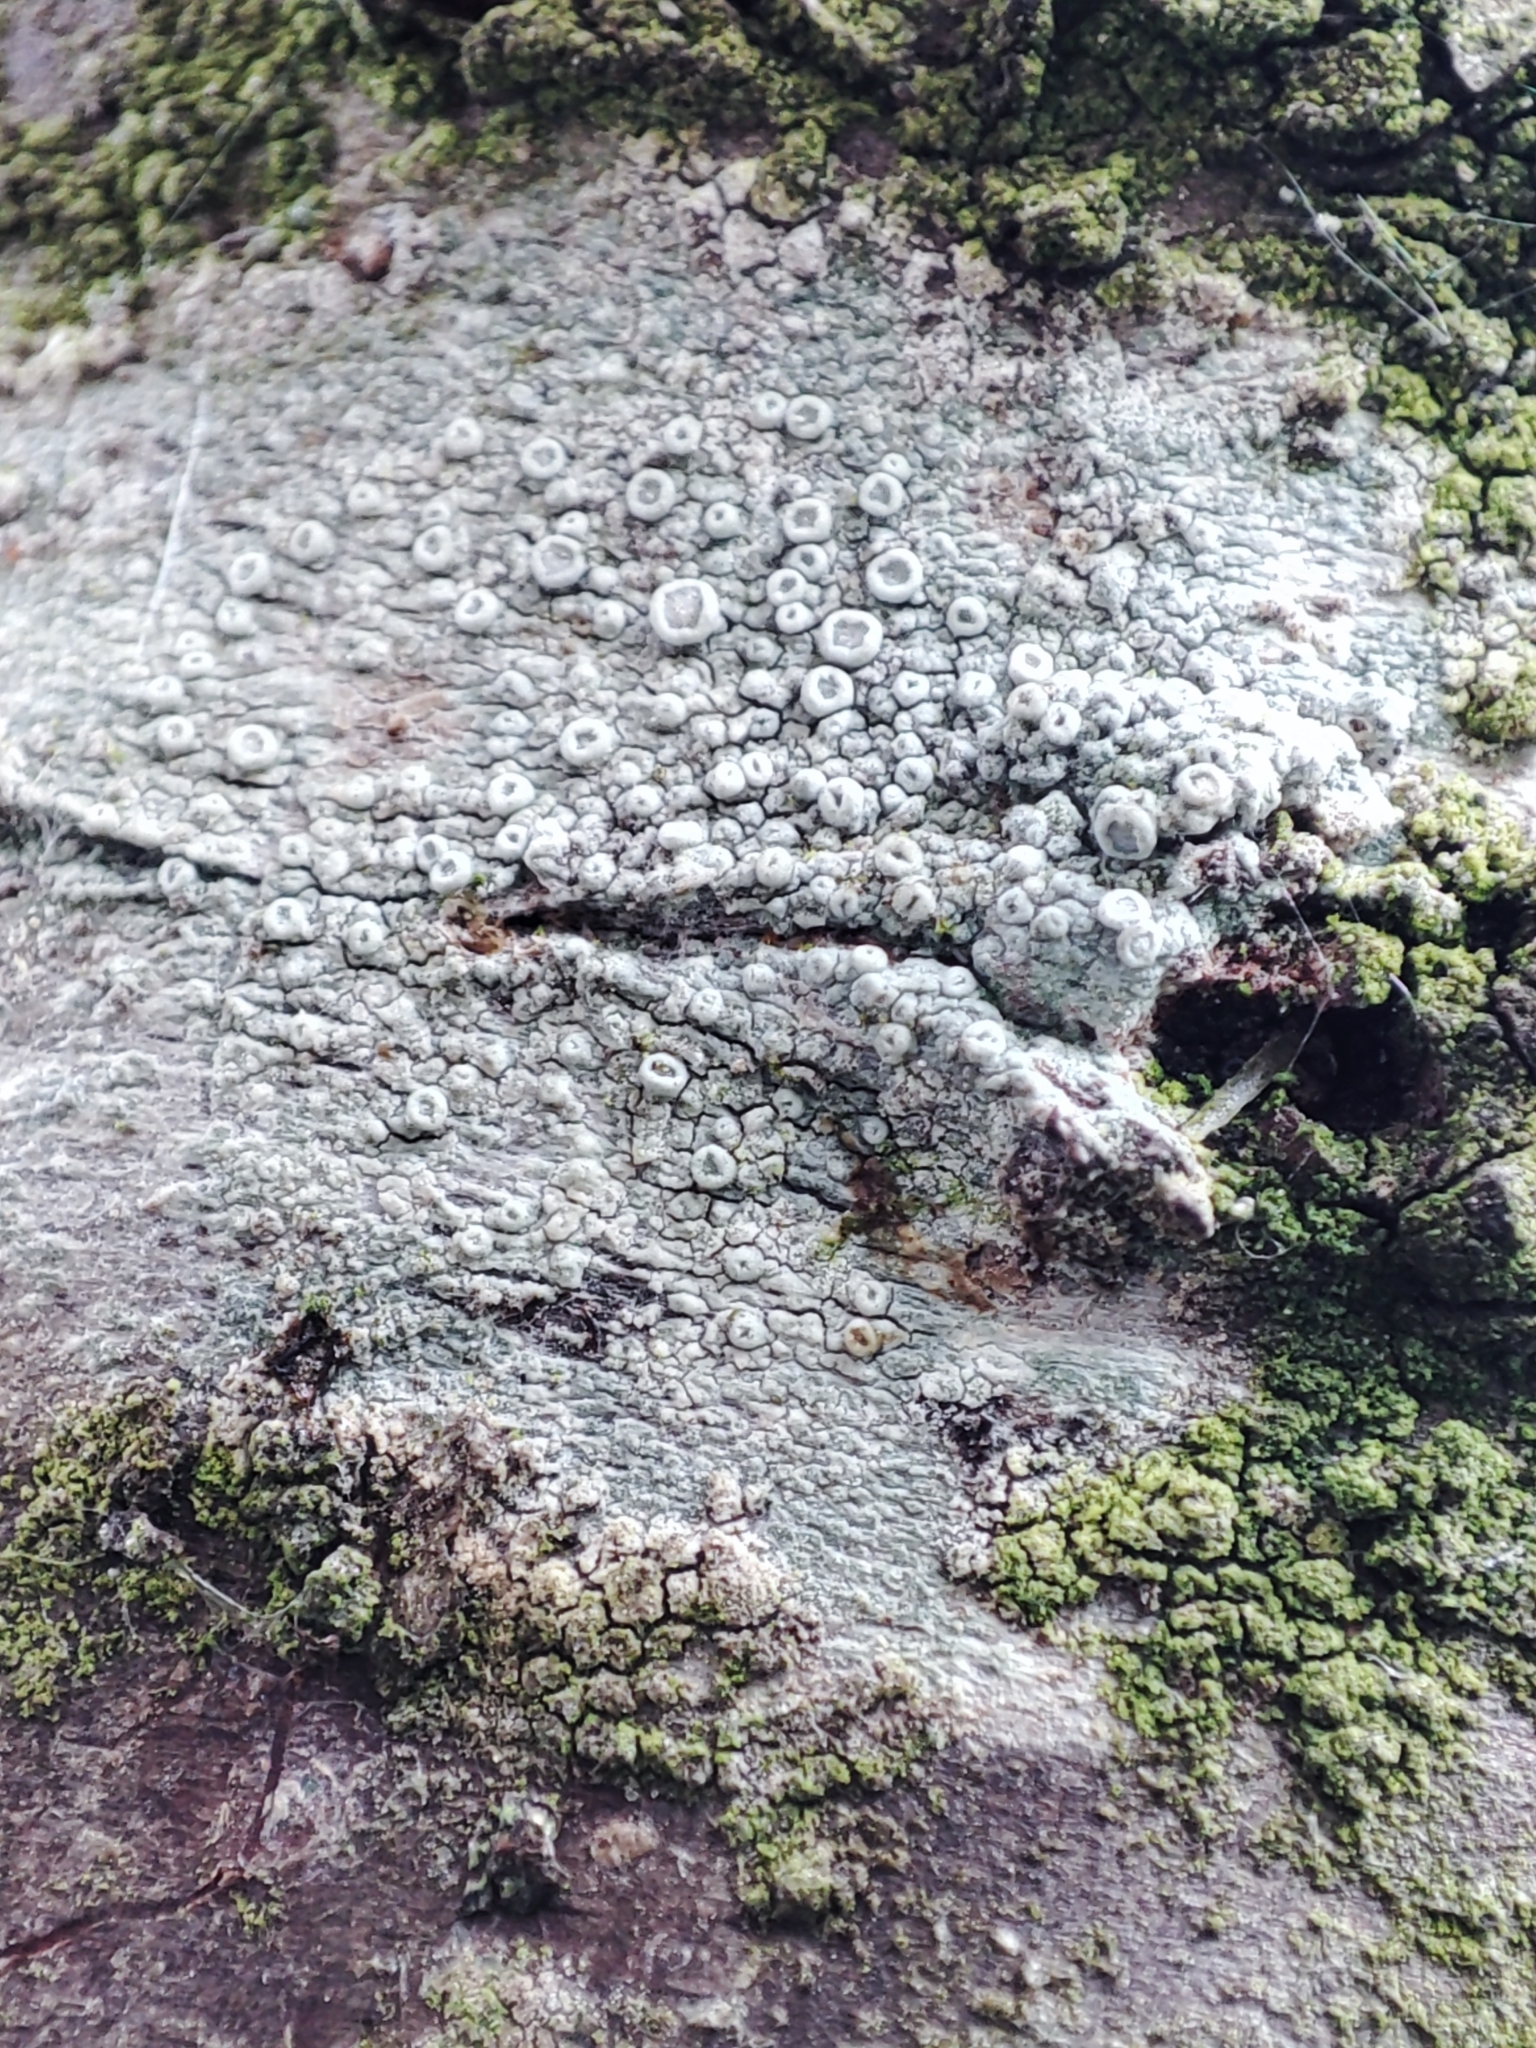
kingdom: Fungi
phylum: Ascomycota
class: Lecanoromycetes
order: Lecanorales
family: Lecanoraceae
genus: Glaucomaria
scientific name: Glaucomaria carpinea
